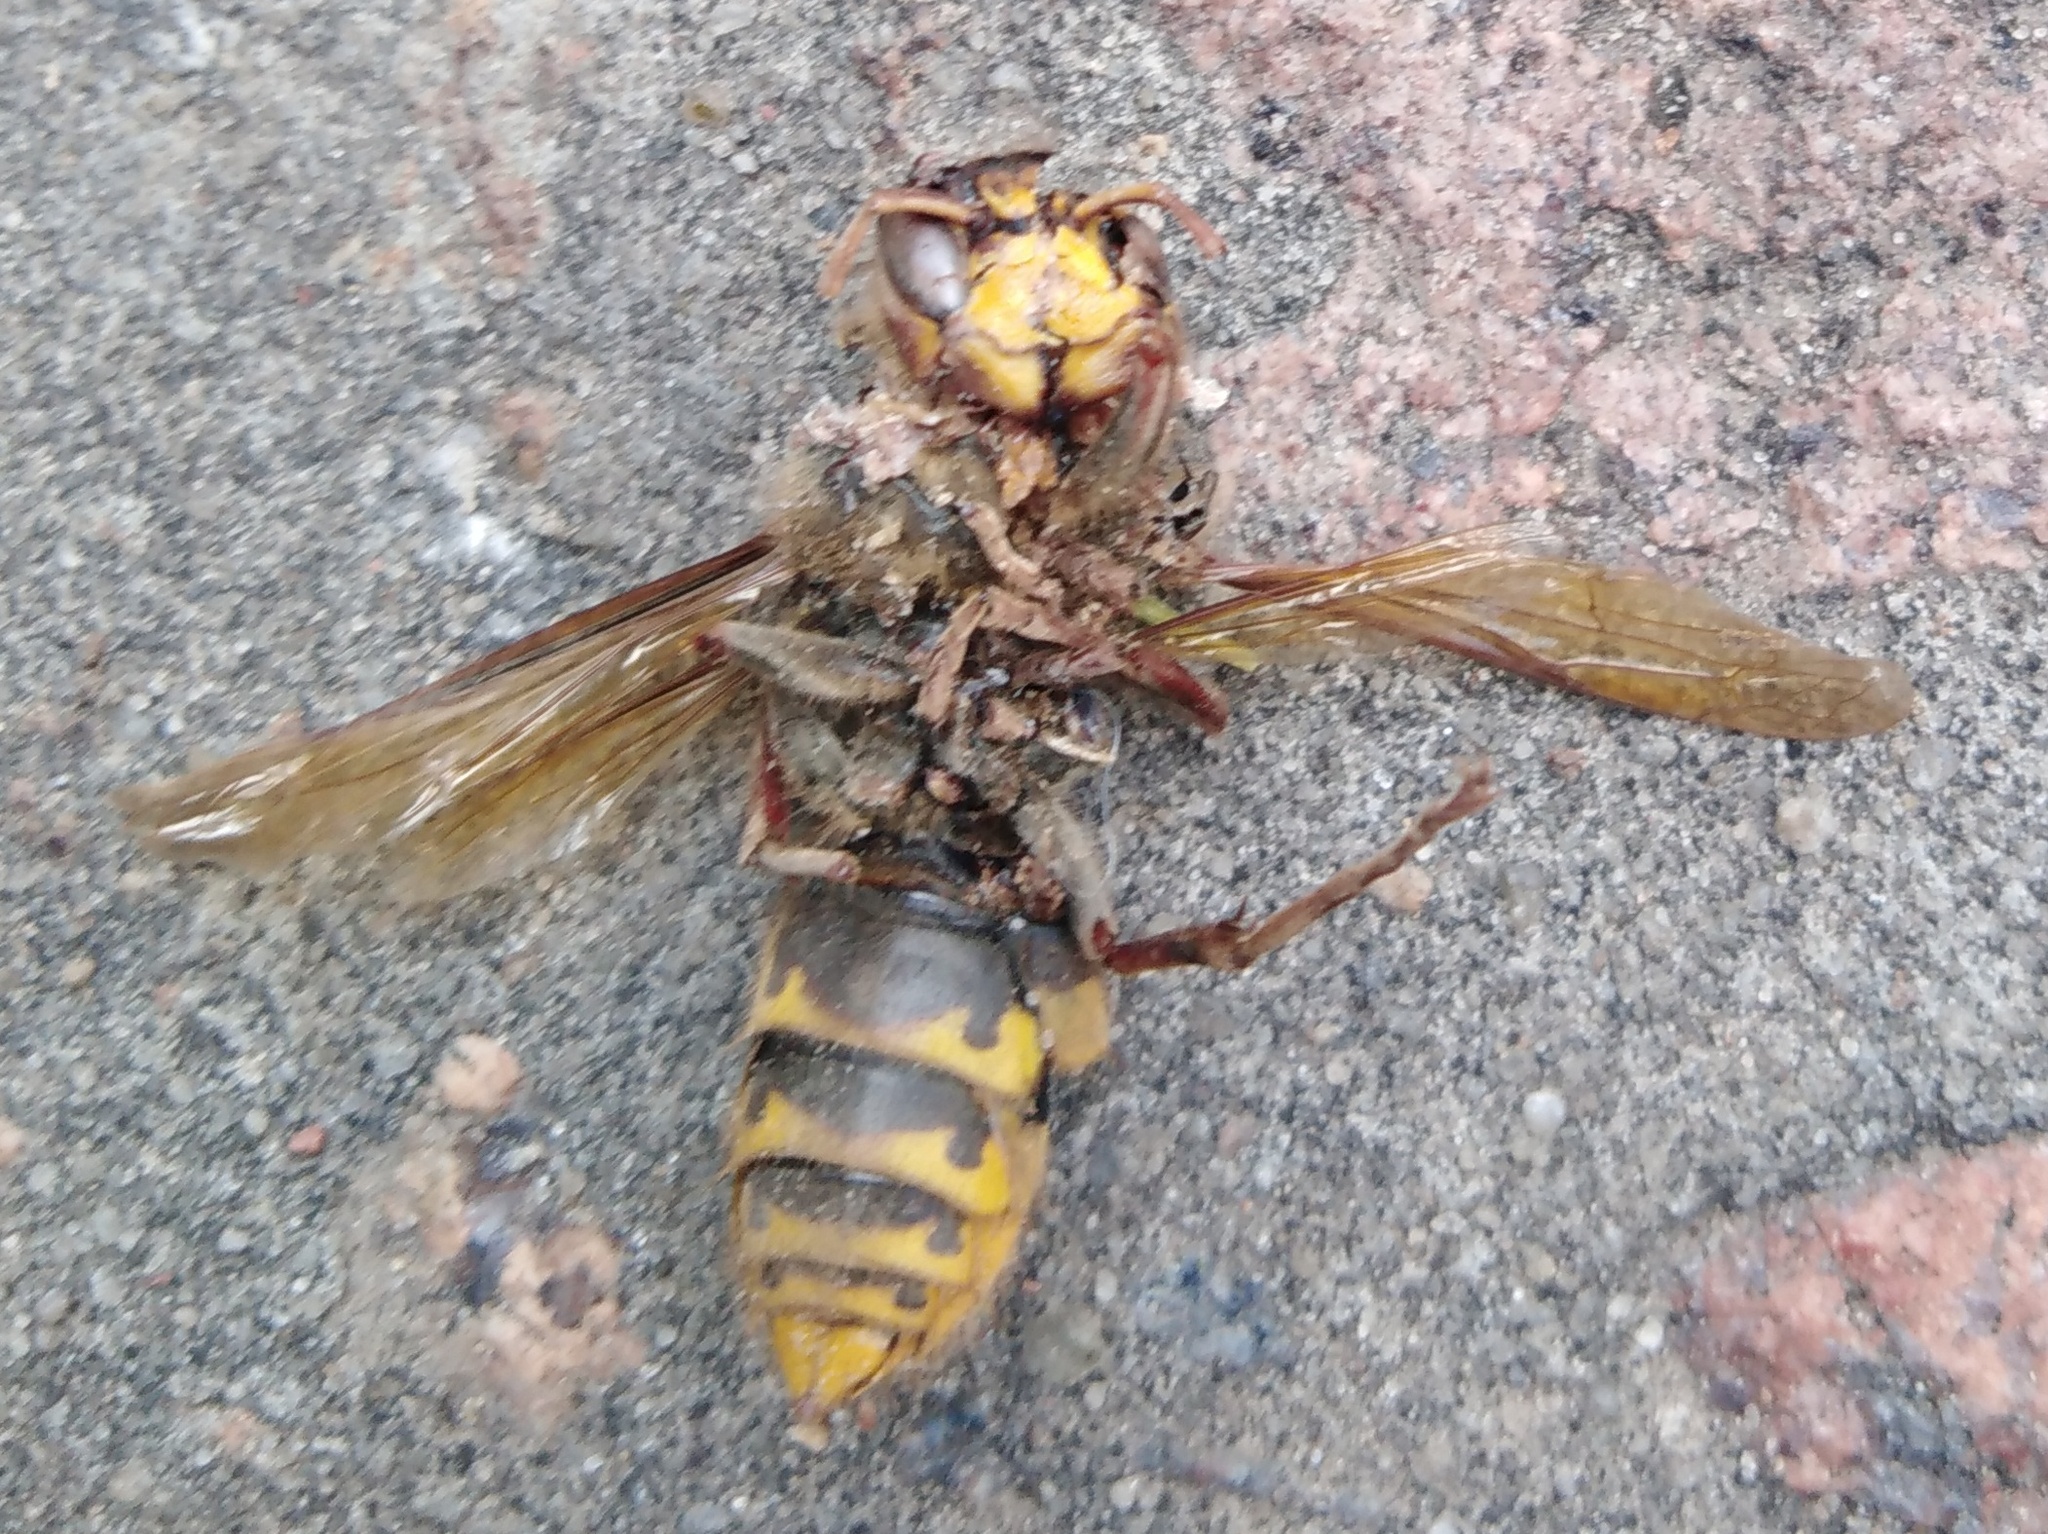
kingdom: Animalia
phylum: Arthropoda
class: Insecta
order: Hymenoptera
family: Vespidae
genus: Vespa
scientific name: Vespa crabro
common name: Hornet
